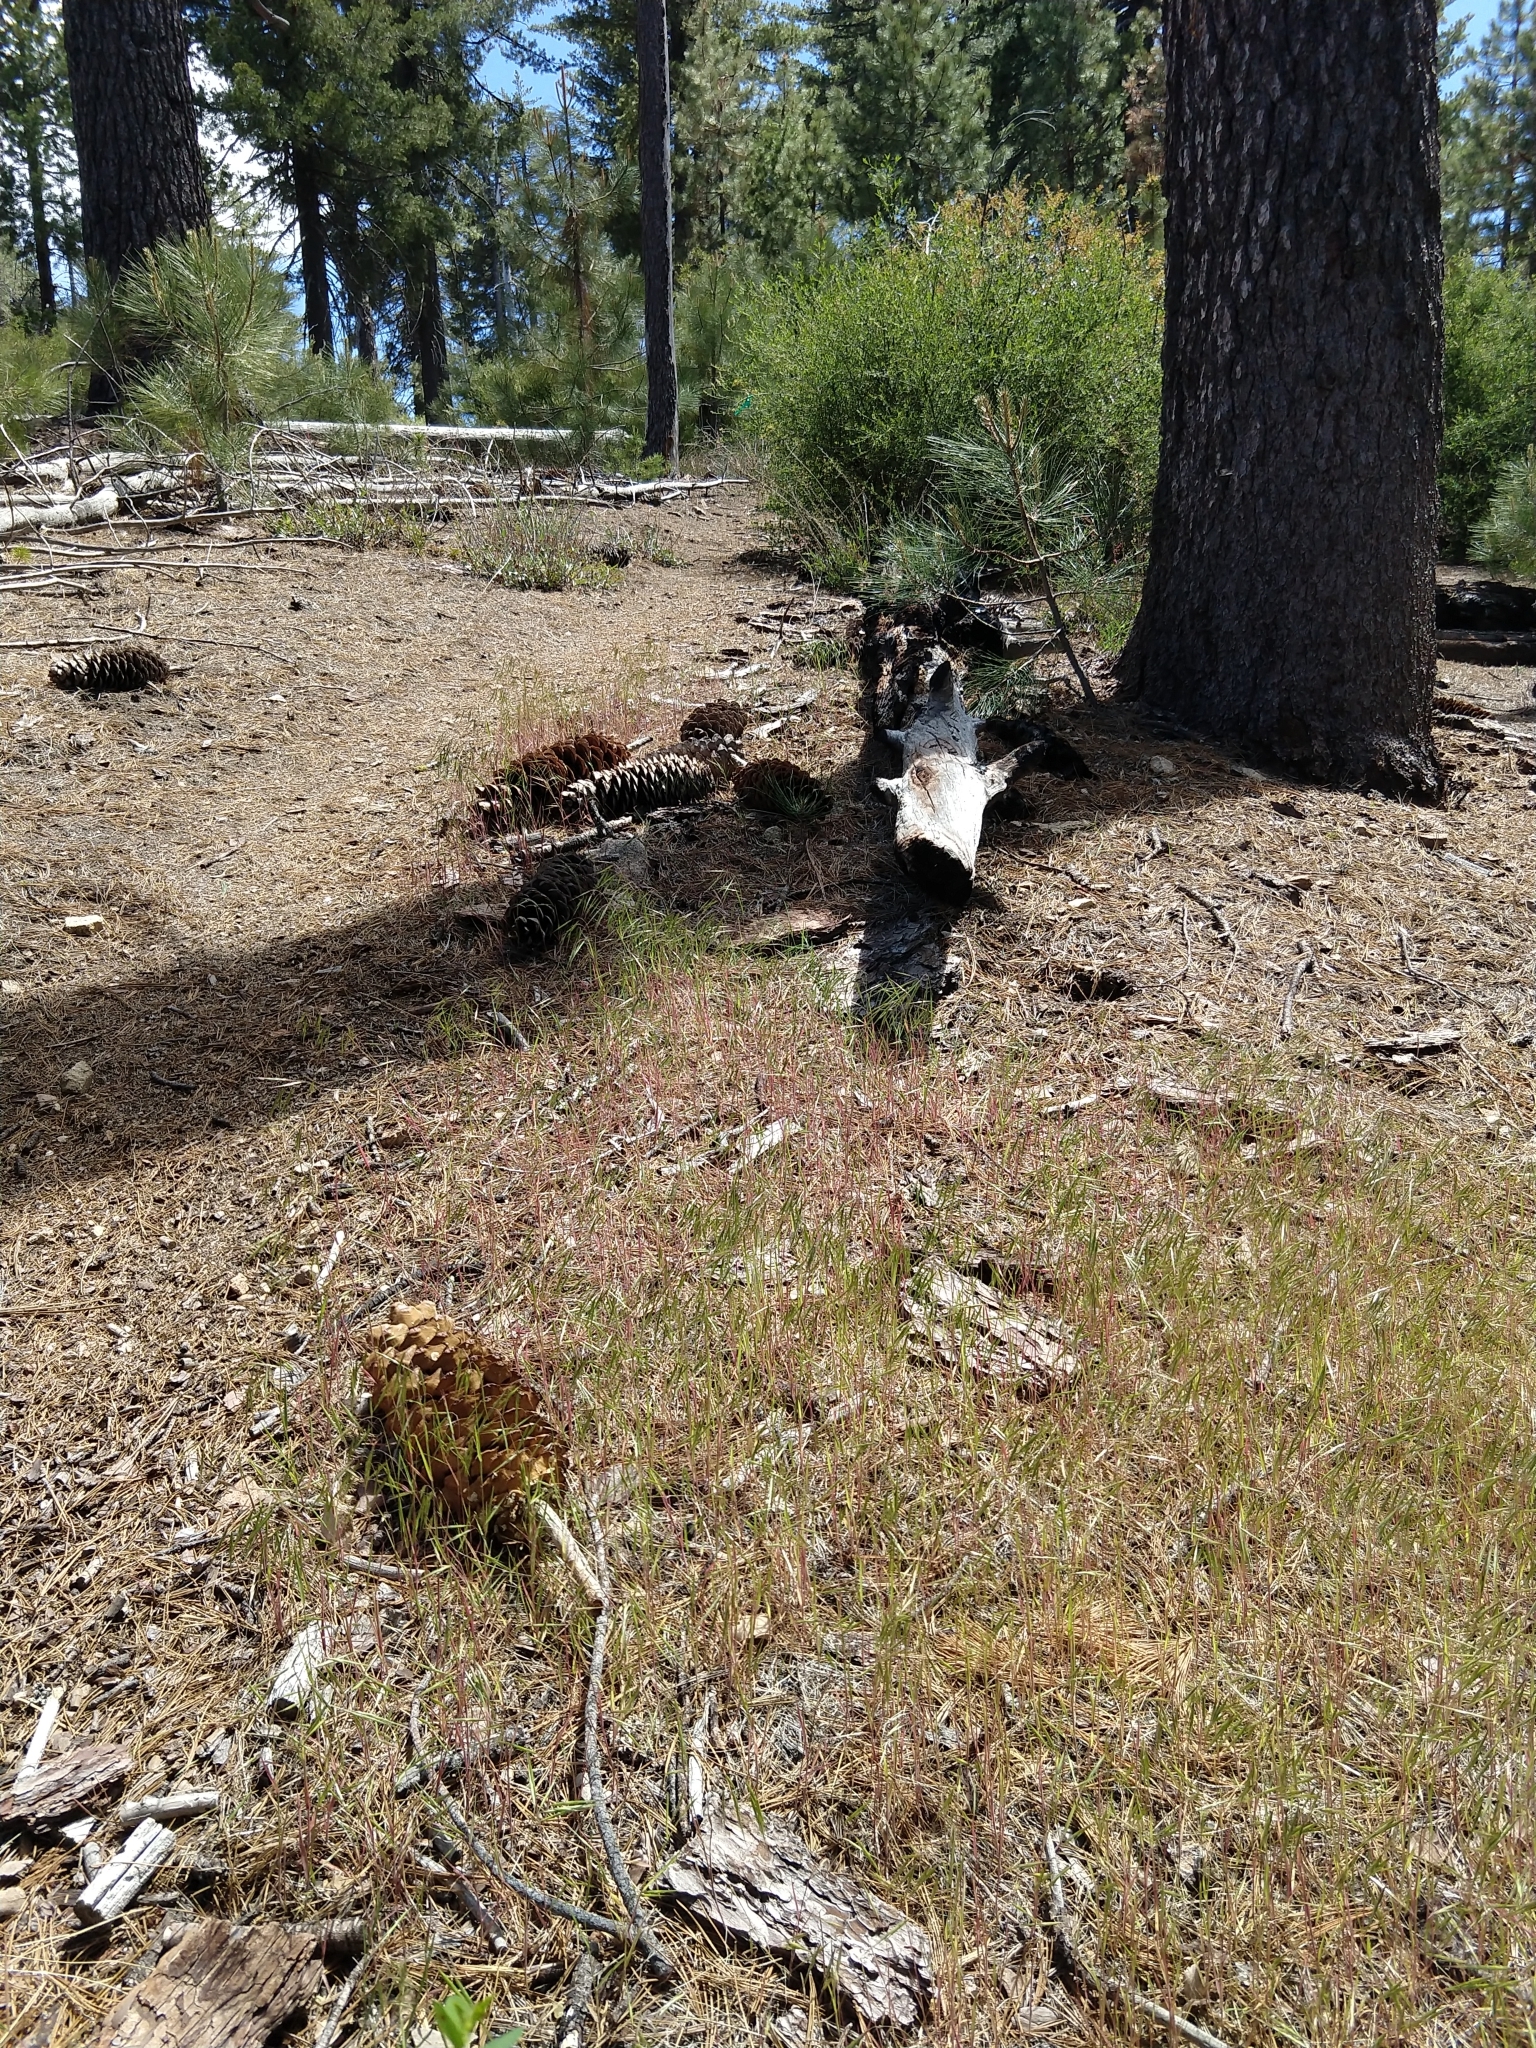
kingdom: Plantae
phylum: Tracheophyta
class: Liliopsida
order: Poales
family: Poaceae
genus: Bromus
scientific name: Bromus tectorum
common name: Cheatgrass
